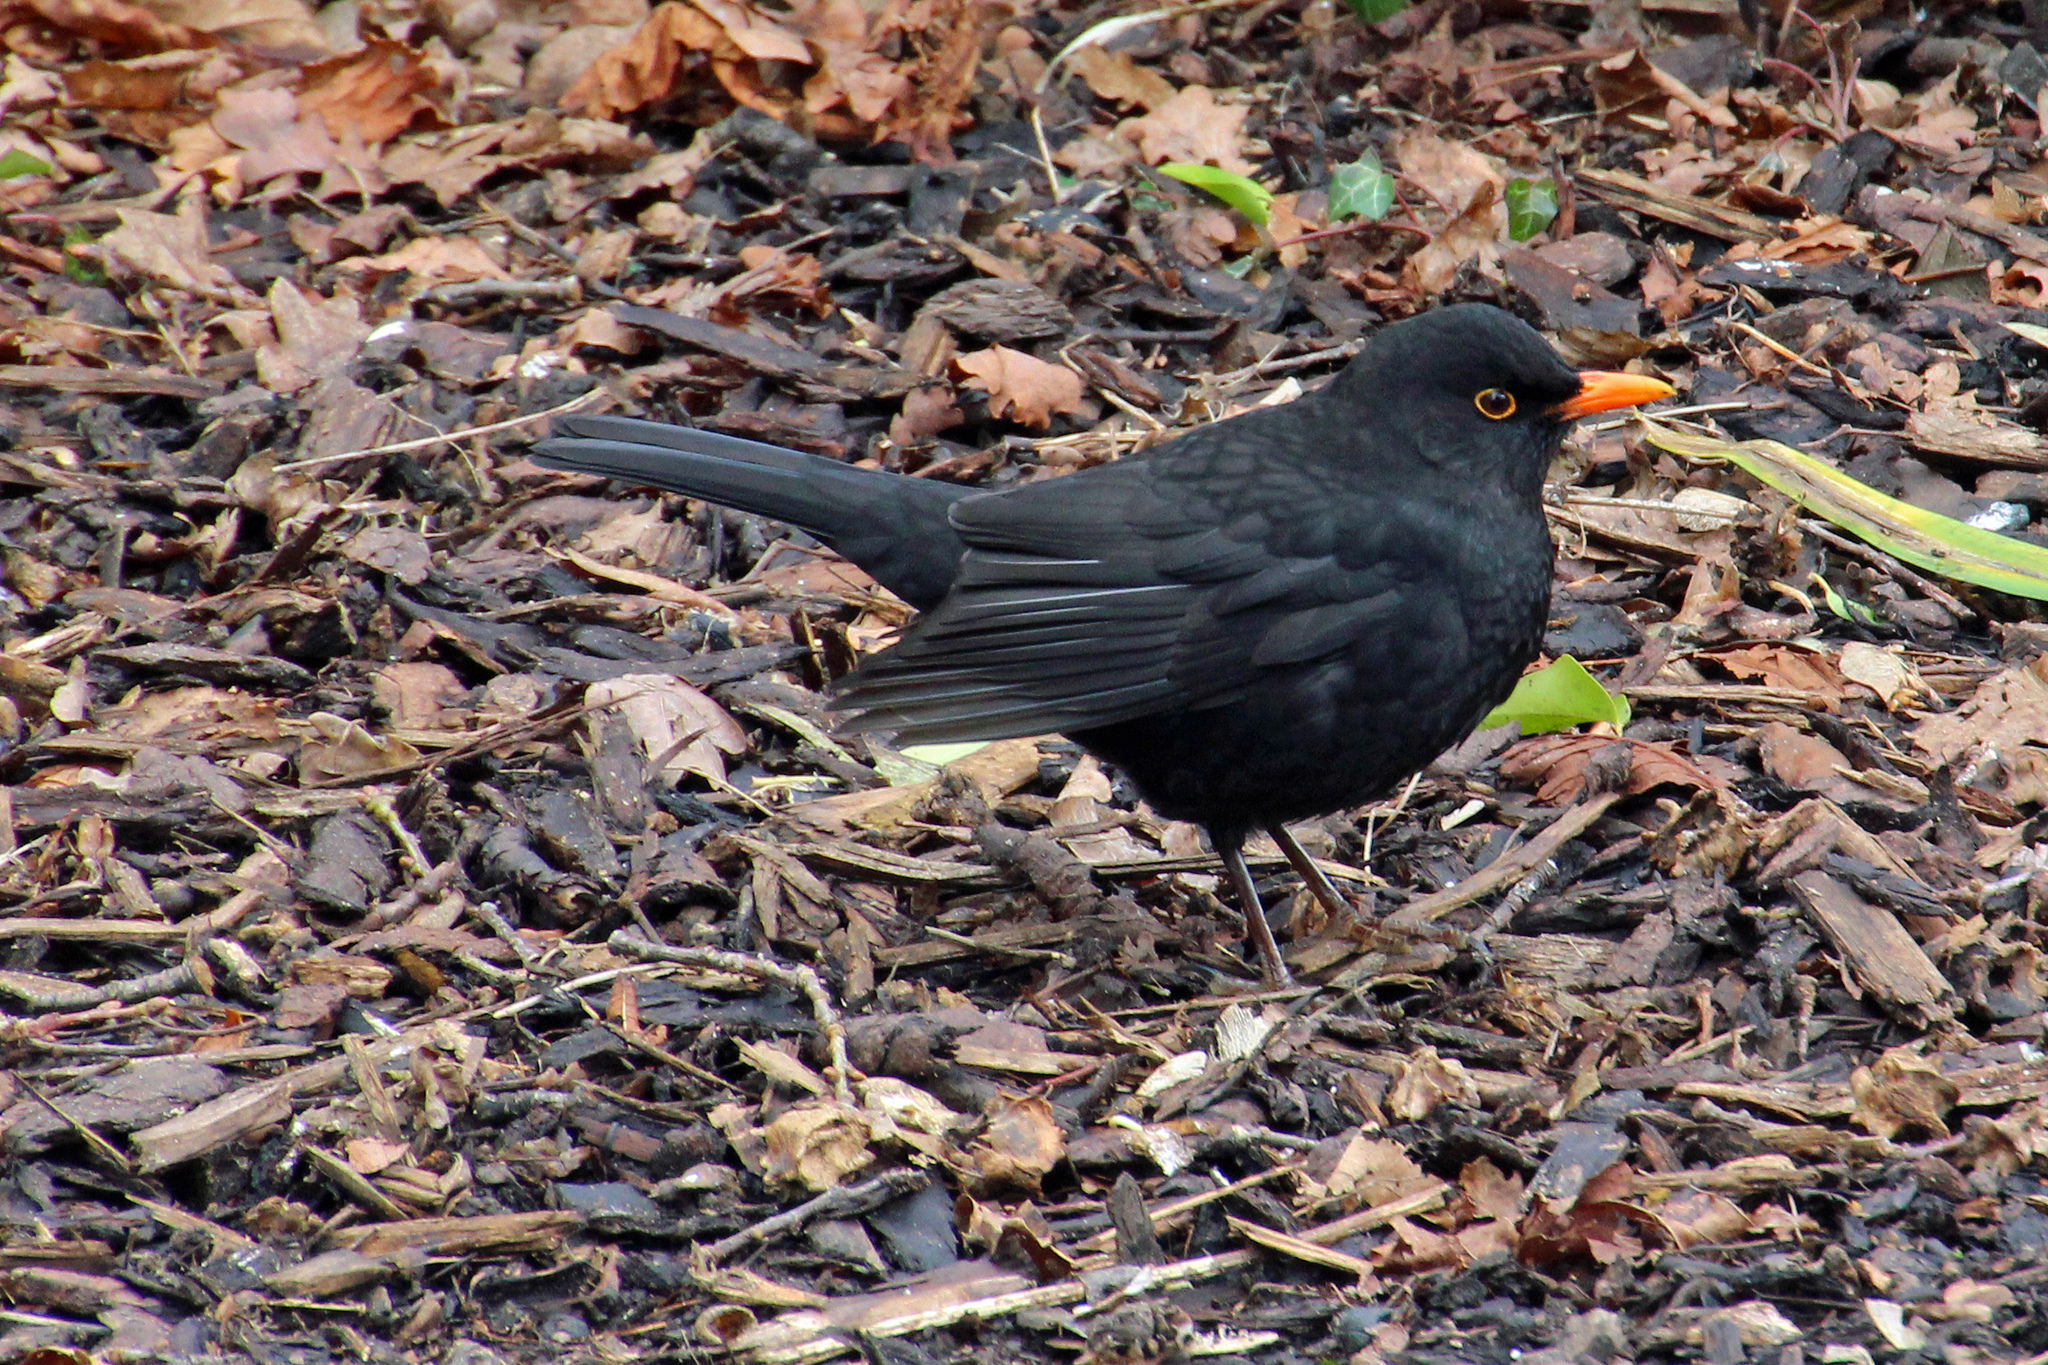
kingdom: Animalia
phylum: Chordata
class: Aves
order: Passeriformes
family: Turdidae
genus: Turdus
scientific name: Turdus merula
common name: Common blackbird
